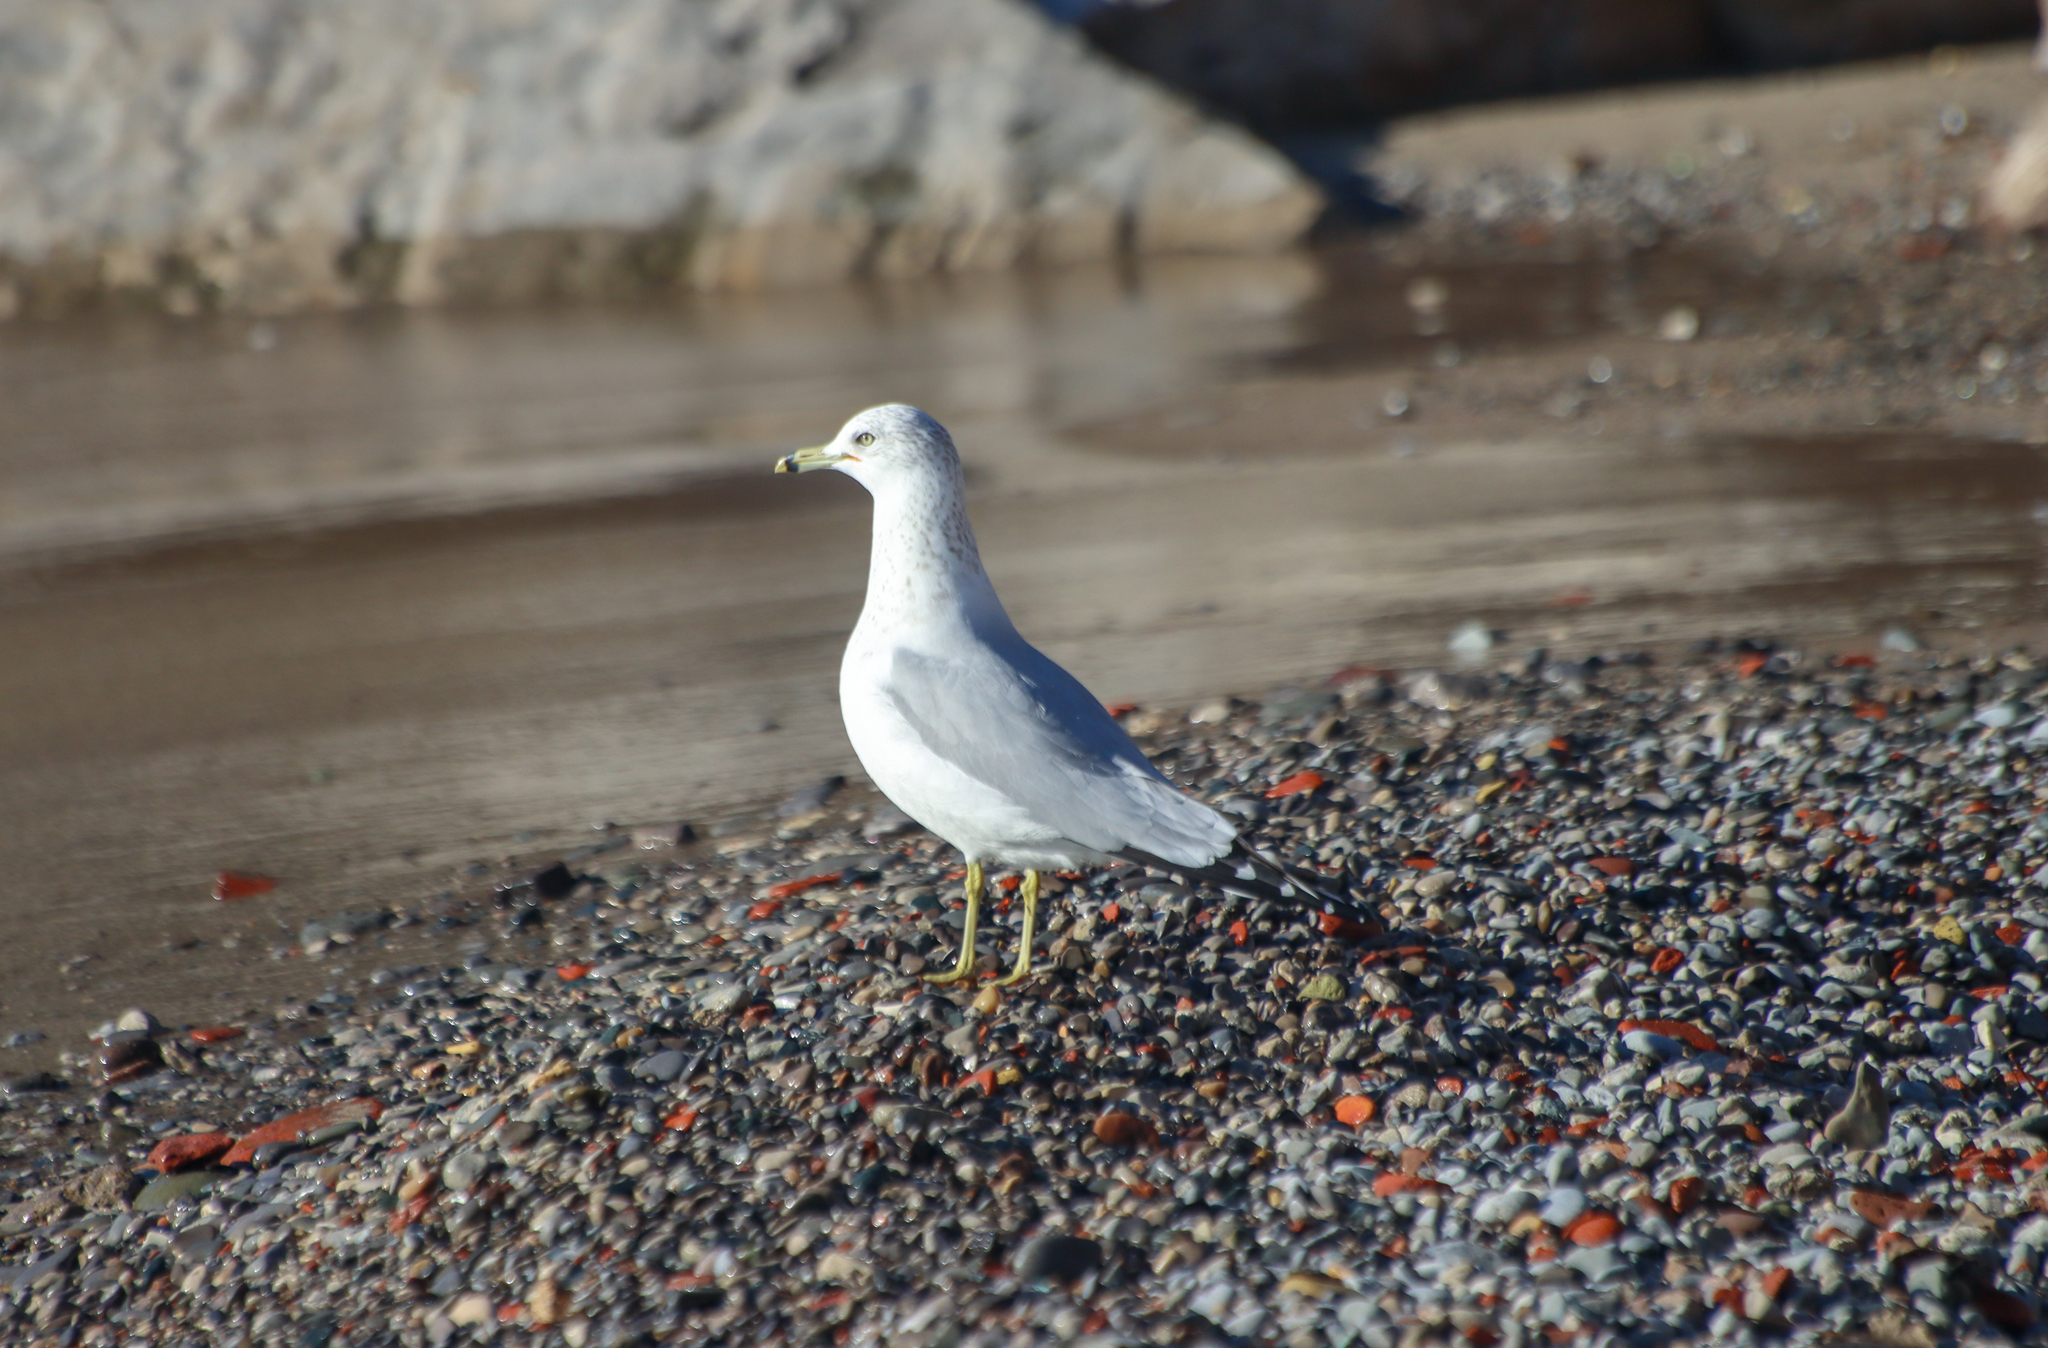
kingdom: Animalia
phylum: Chordata
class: Aves
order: Charadriiformes
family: Laridae
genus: Larus
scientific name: Larus delawarensis
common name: Ring-billed gull
